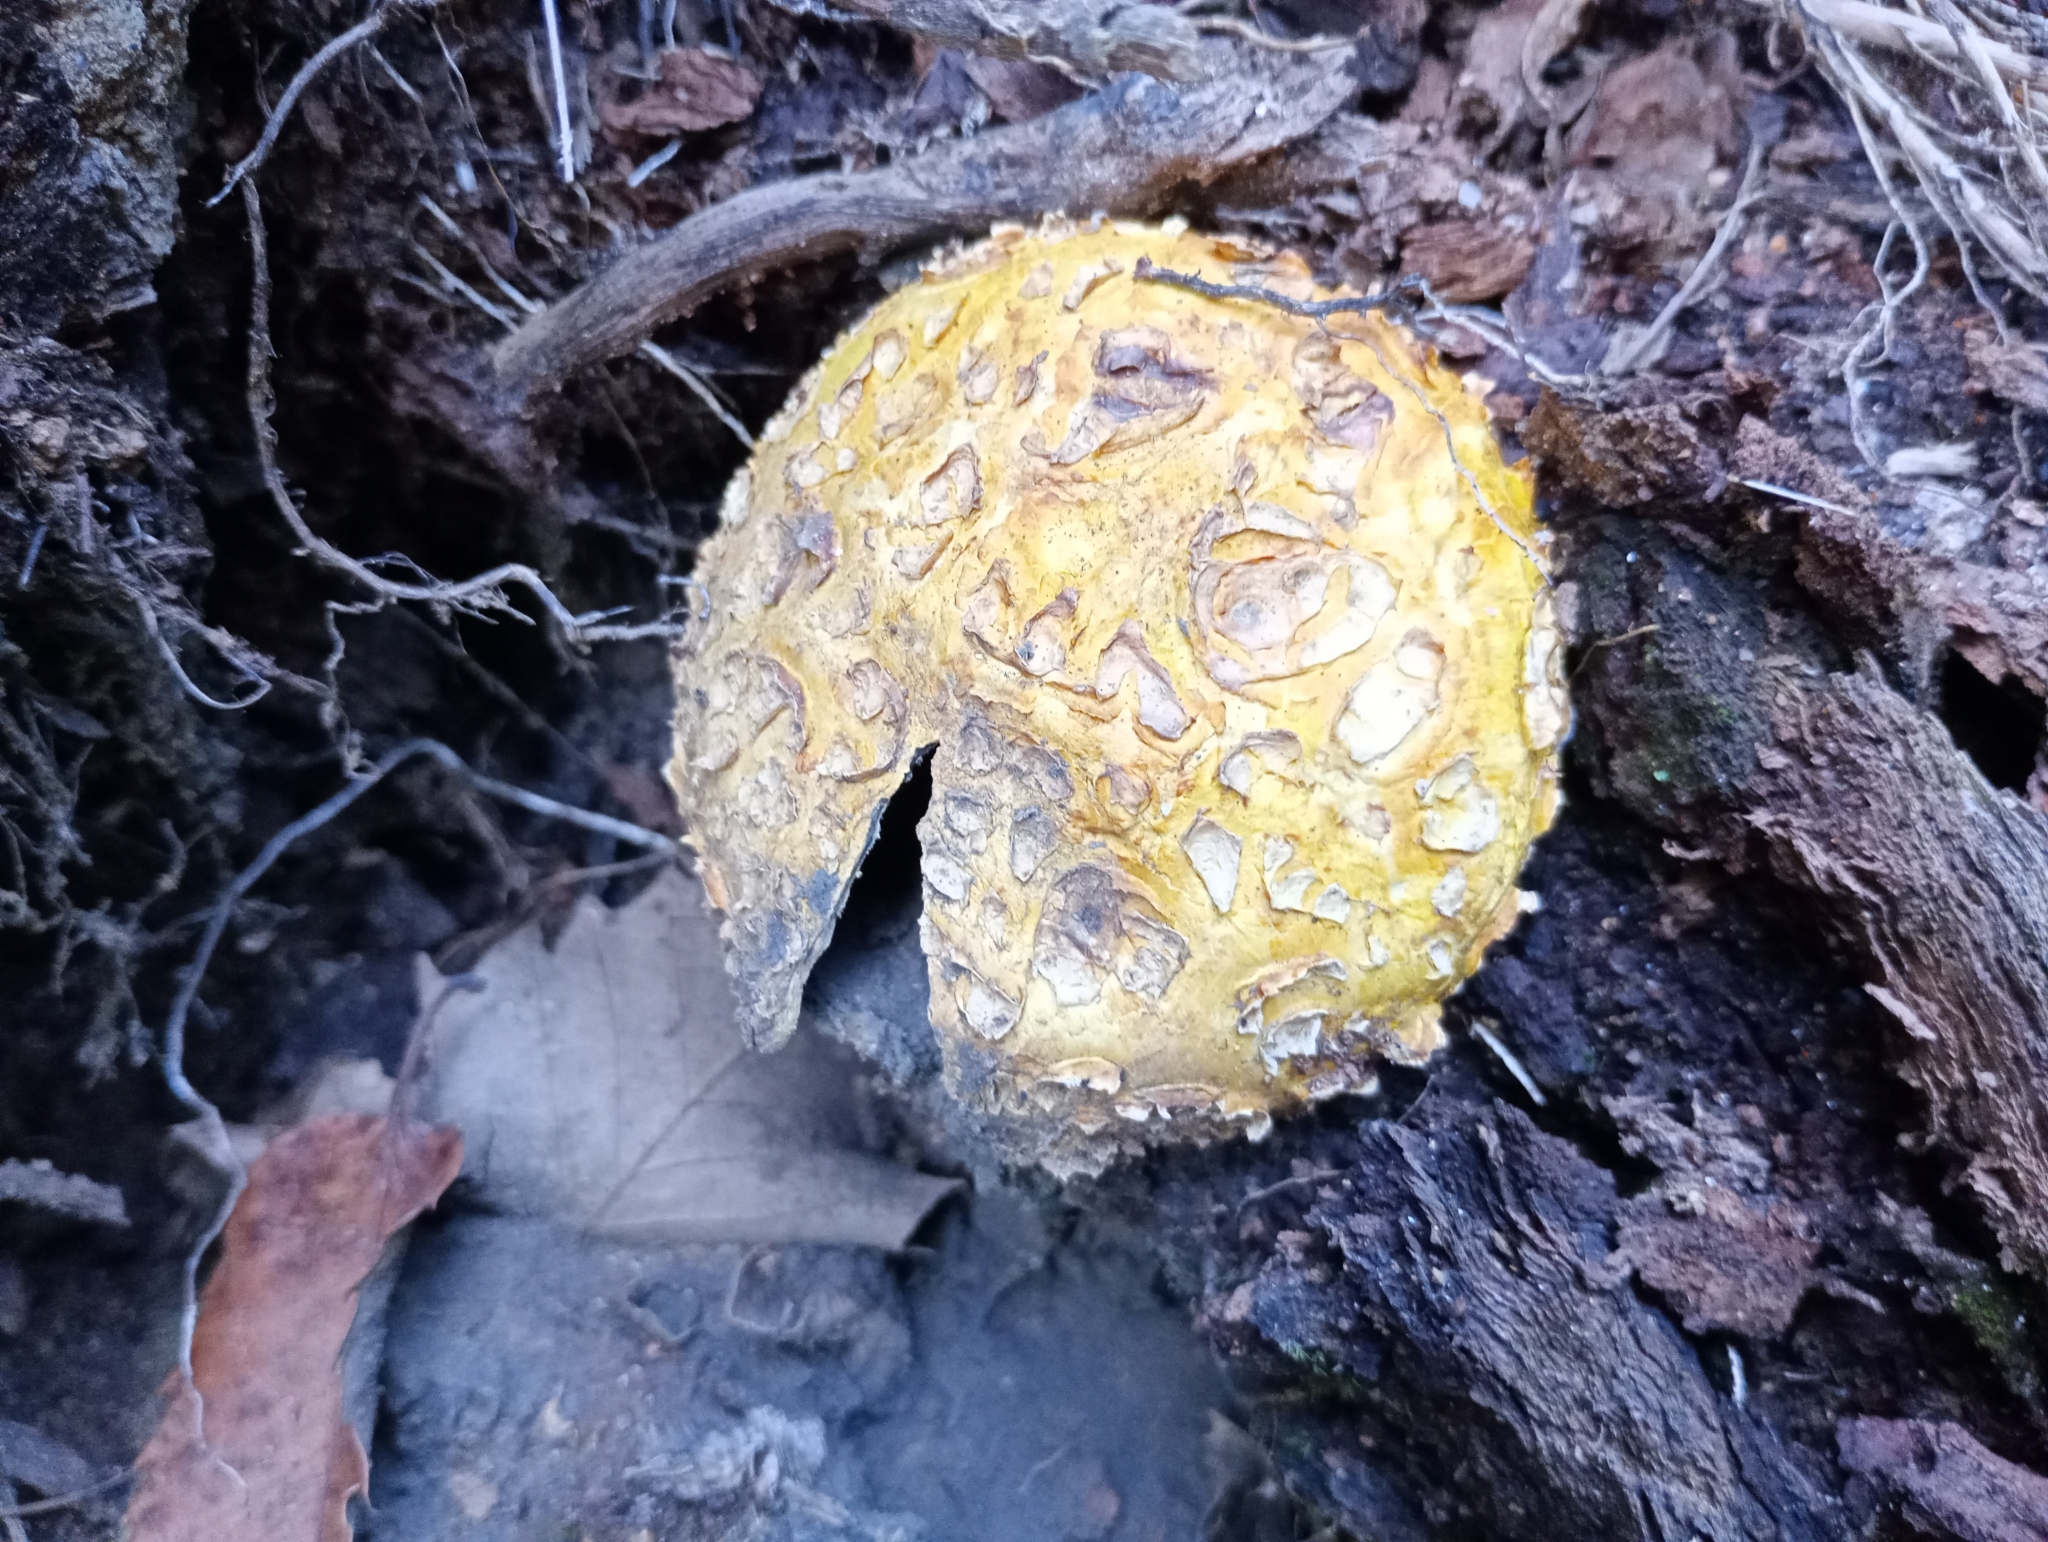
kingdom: Fungi
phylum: Basidiomycota
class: Agaricomycetes
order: Boletales
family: Sclerodermataceae
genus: Scleroderma
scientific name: Scleroderma citrinum
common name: Common earthball
